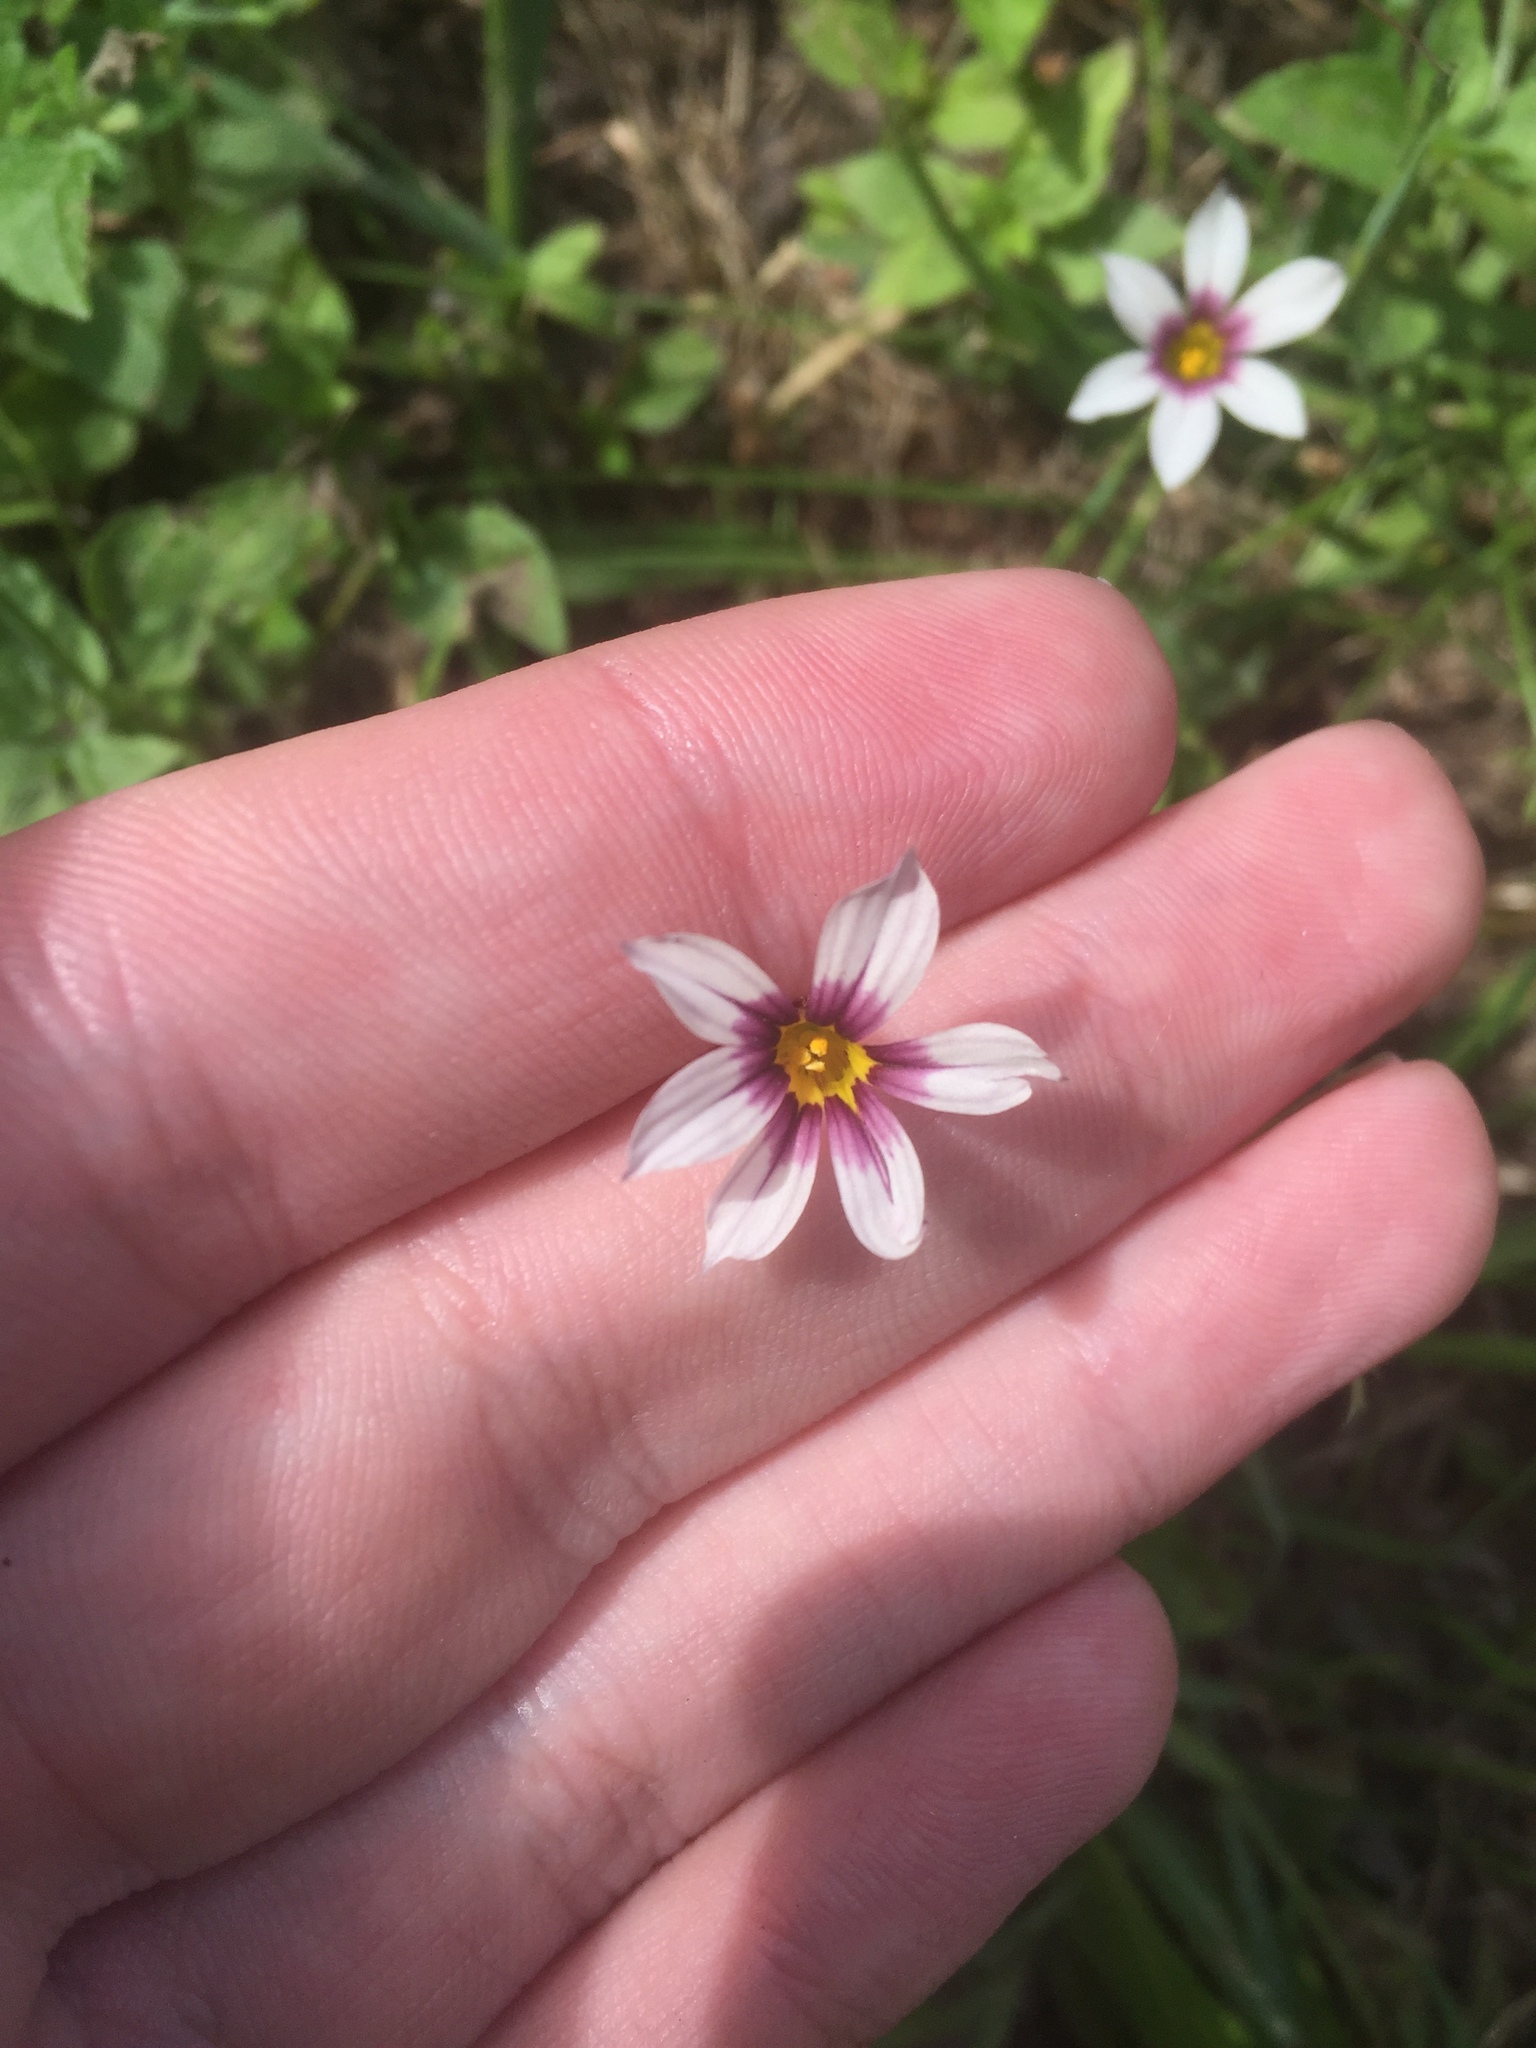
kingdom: Plantae
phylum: Tracheophyta
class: Liliopsida
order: Asparagales
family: Iridaceae
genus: Sisyrinchium
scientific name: Sisyrinchium micranthum
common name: Bermuda pigroot
